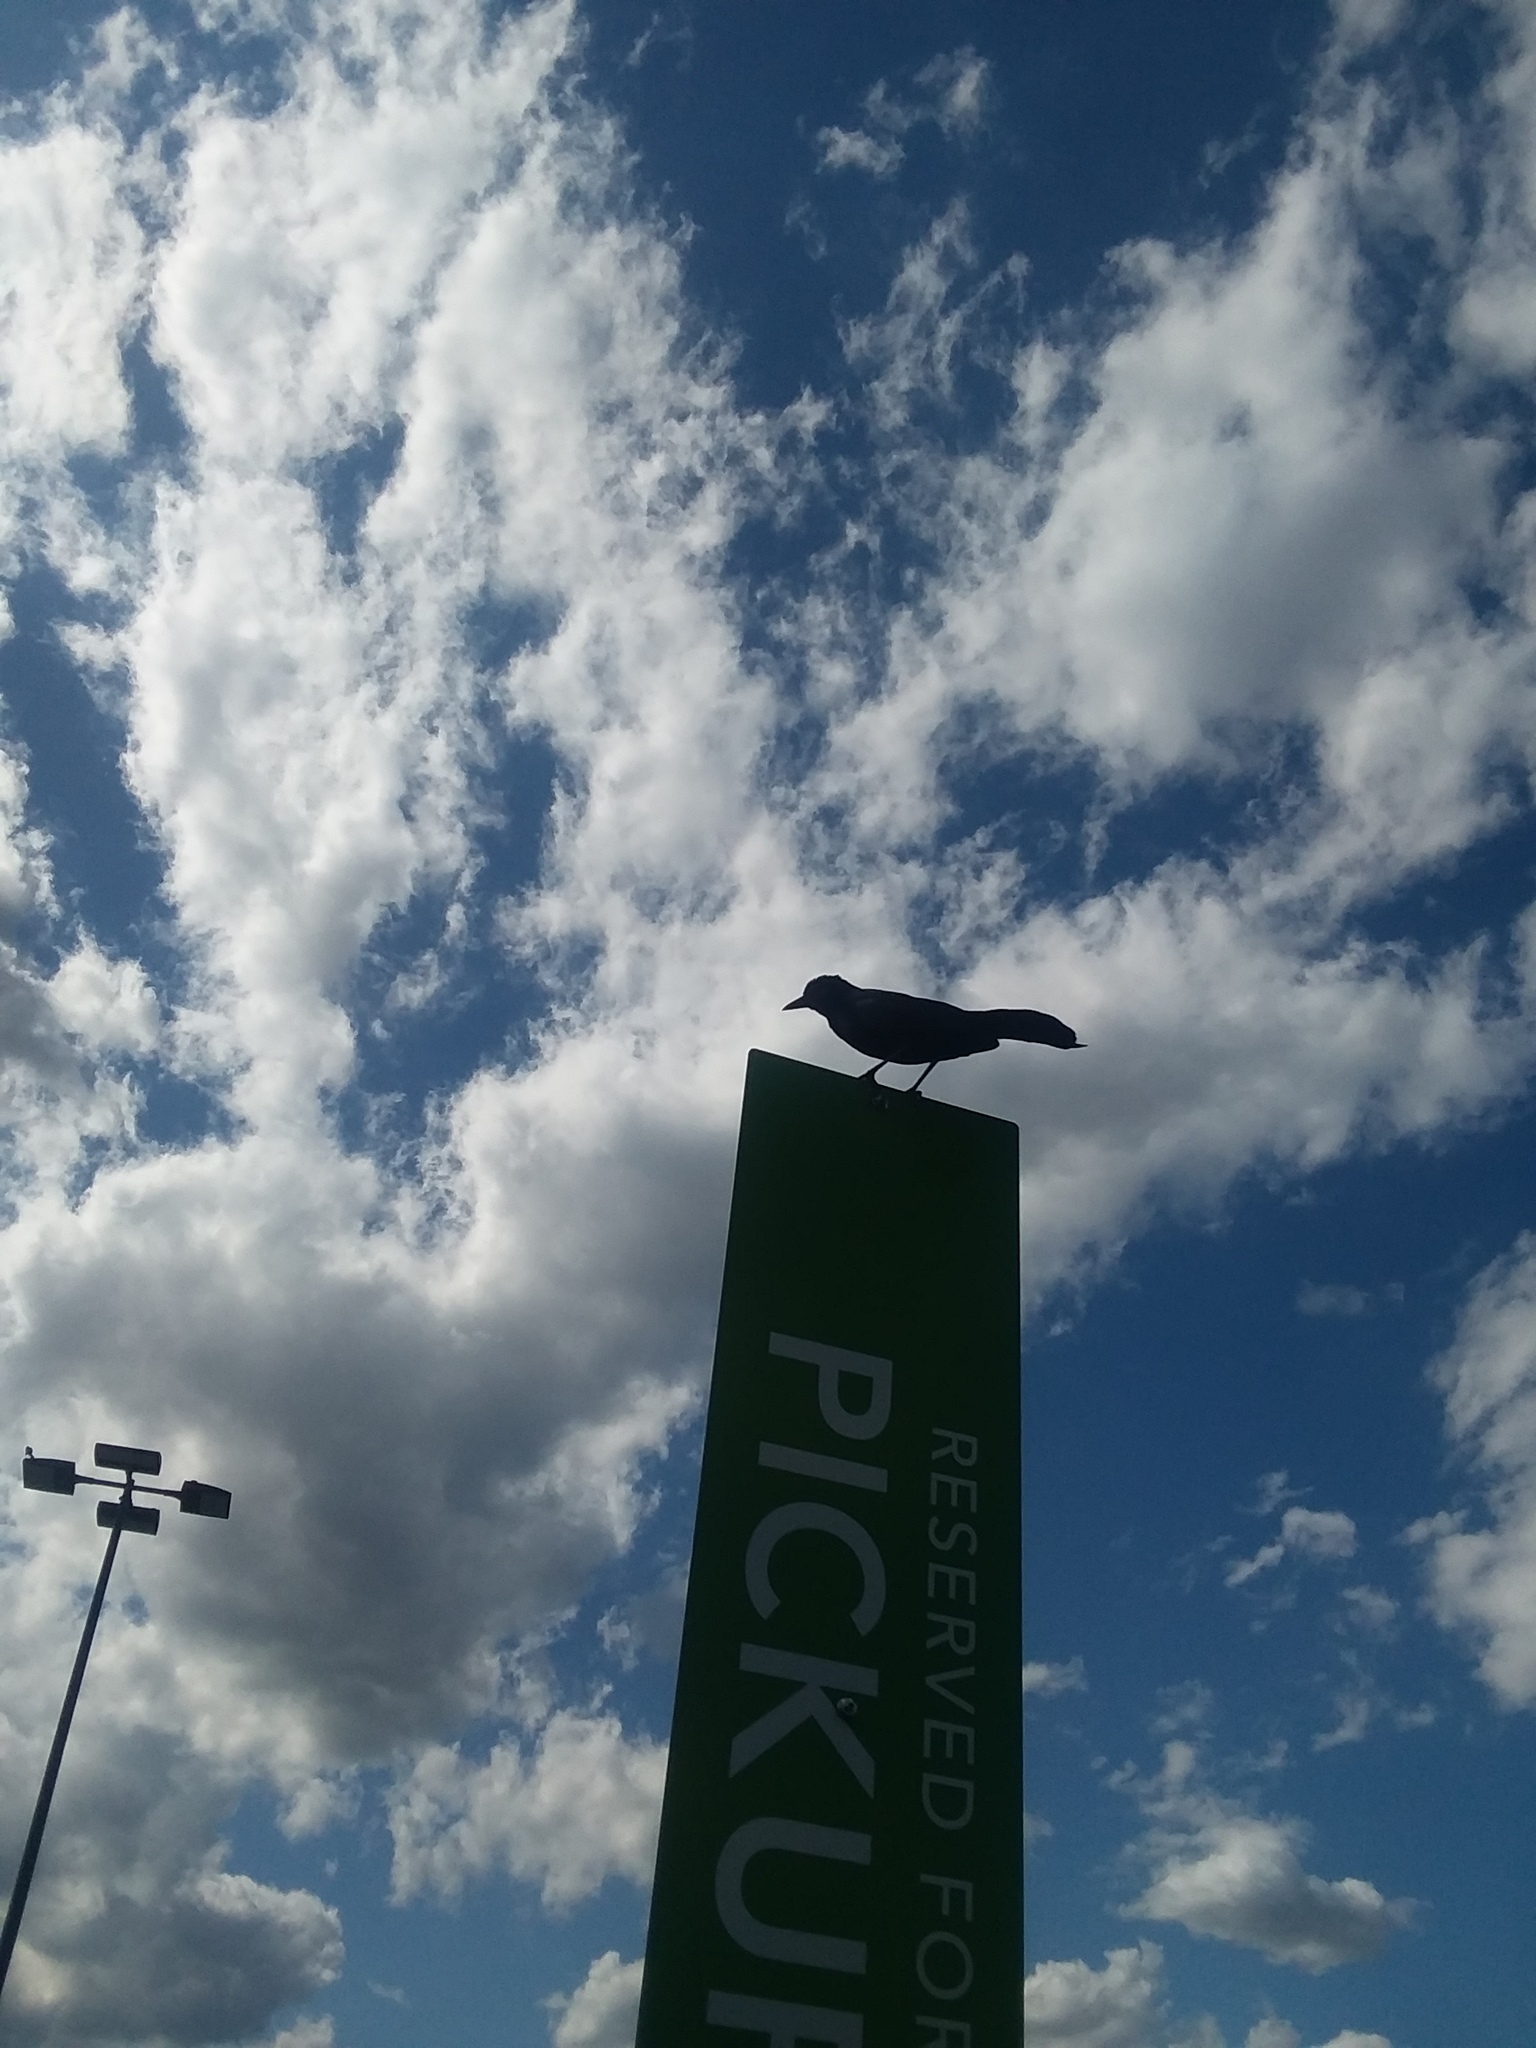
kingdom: Animalia
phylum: Chordata
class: Aves
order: Passeriformes
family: Icteridae
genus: Quiscalus
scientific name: Quiscalus major
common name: Boat-tailed grackle
